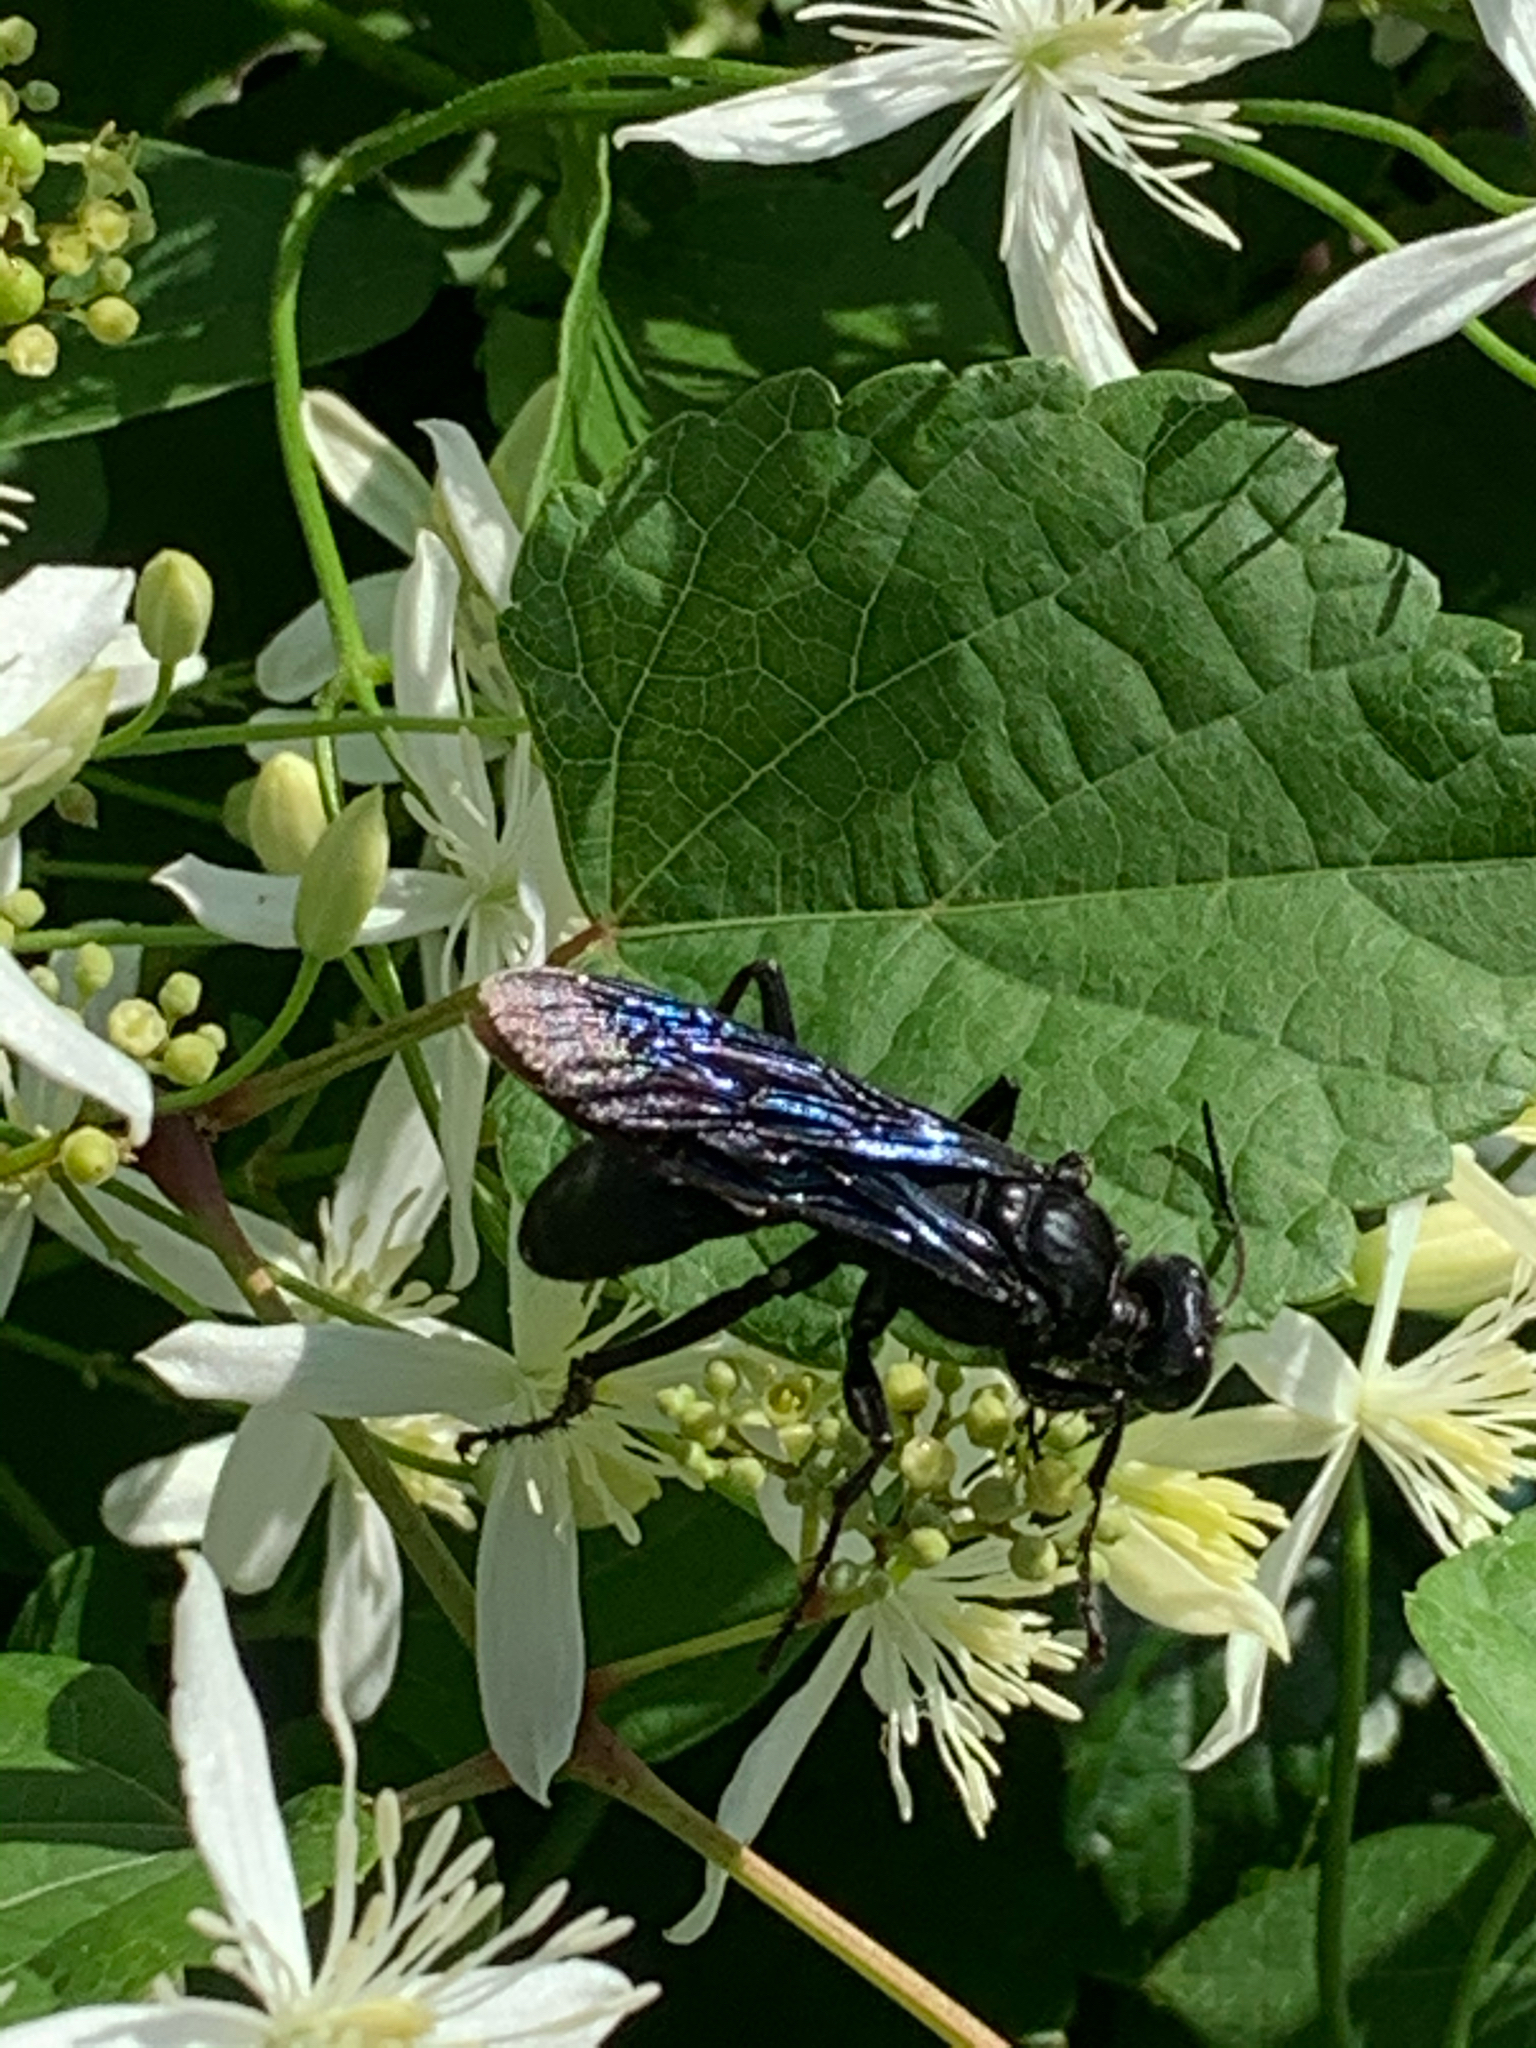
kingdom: Animalia
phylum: Arthropoda
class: Insecta
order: Hymenoptera
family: Sphecidae
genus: Sphex
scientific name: Sphex pensylvanicus
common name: Great black digger wasp
